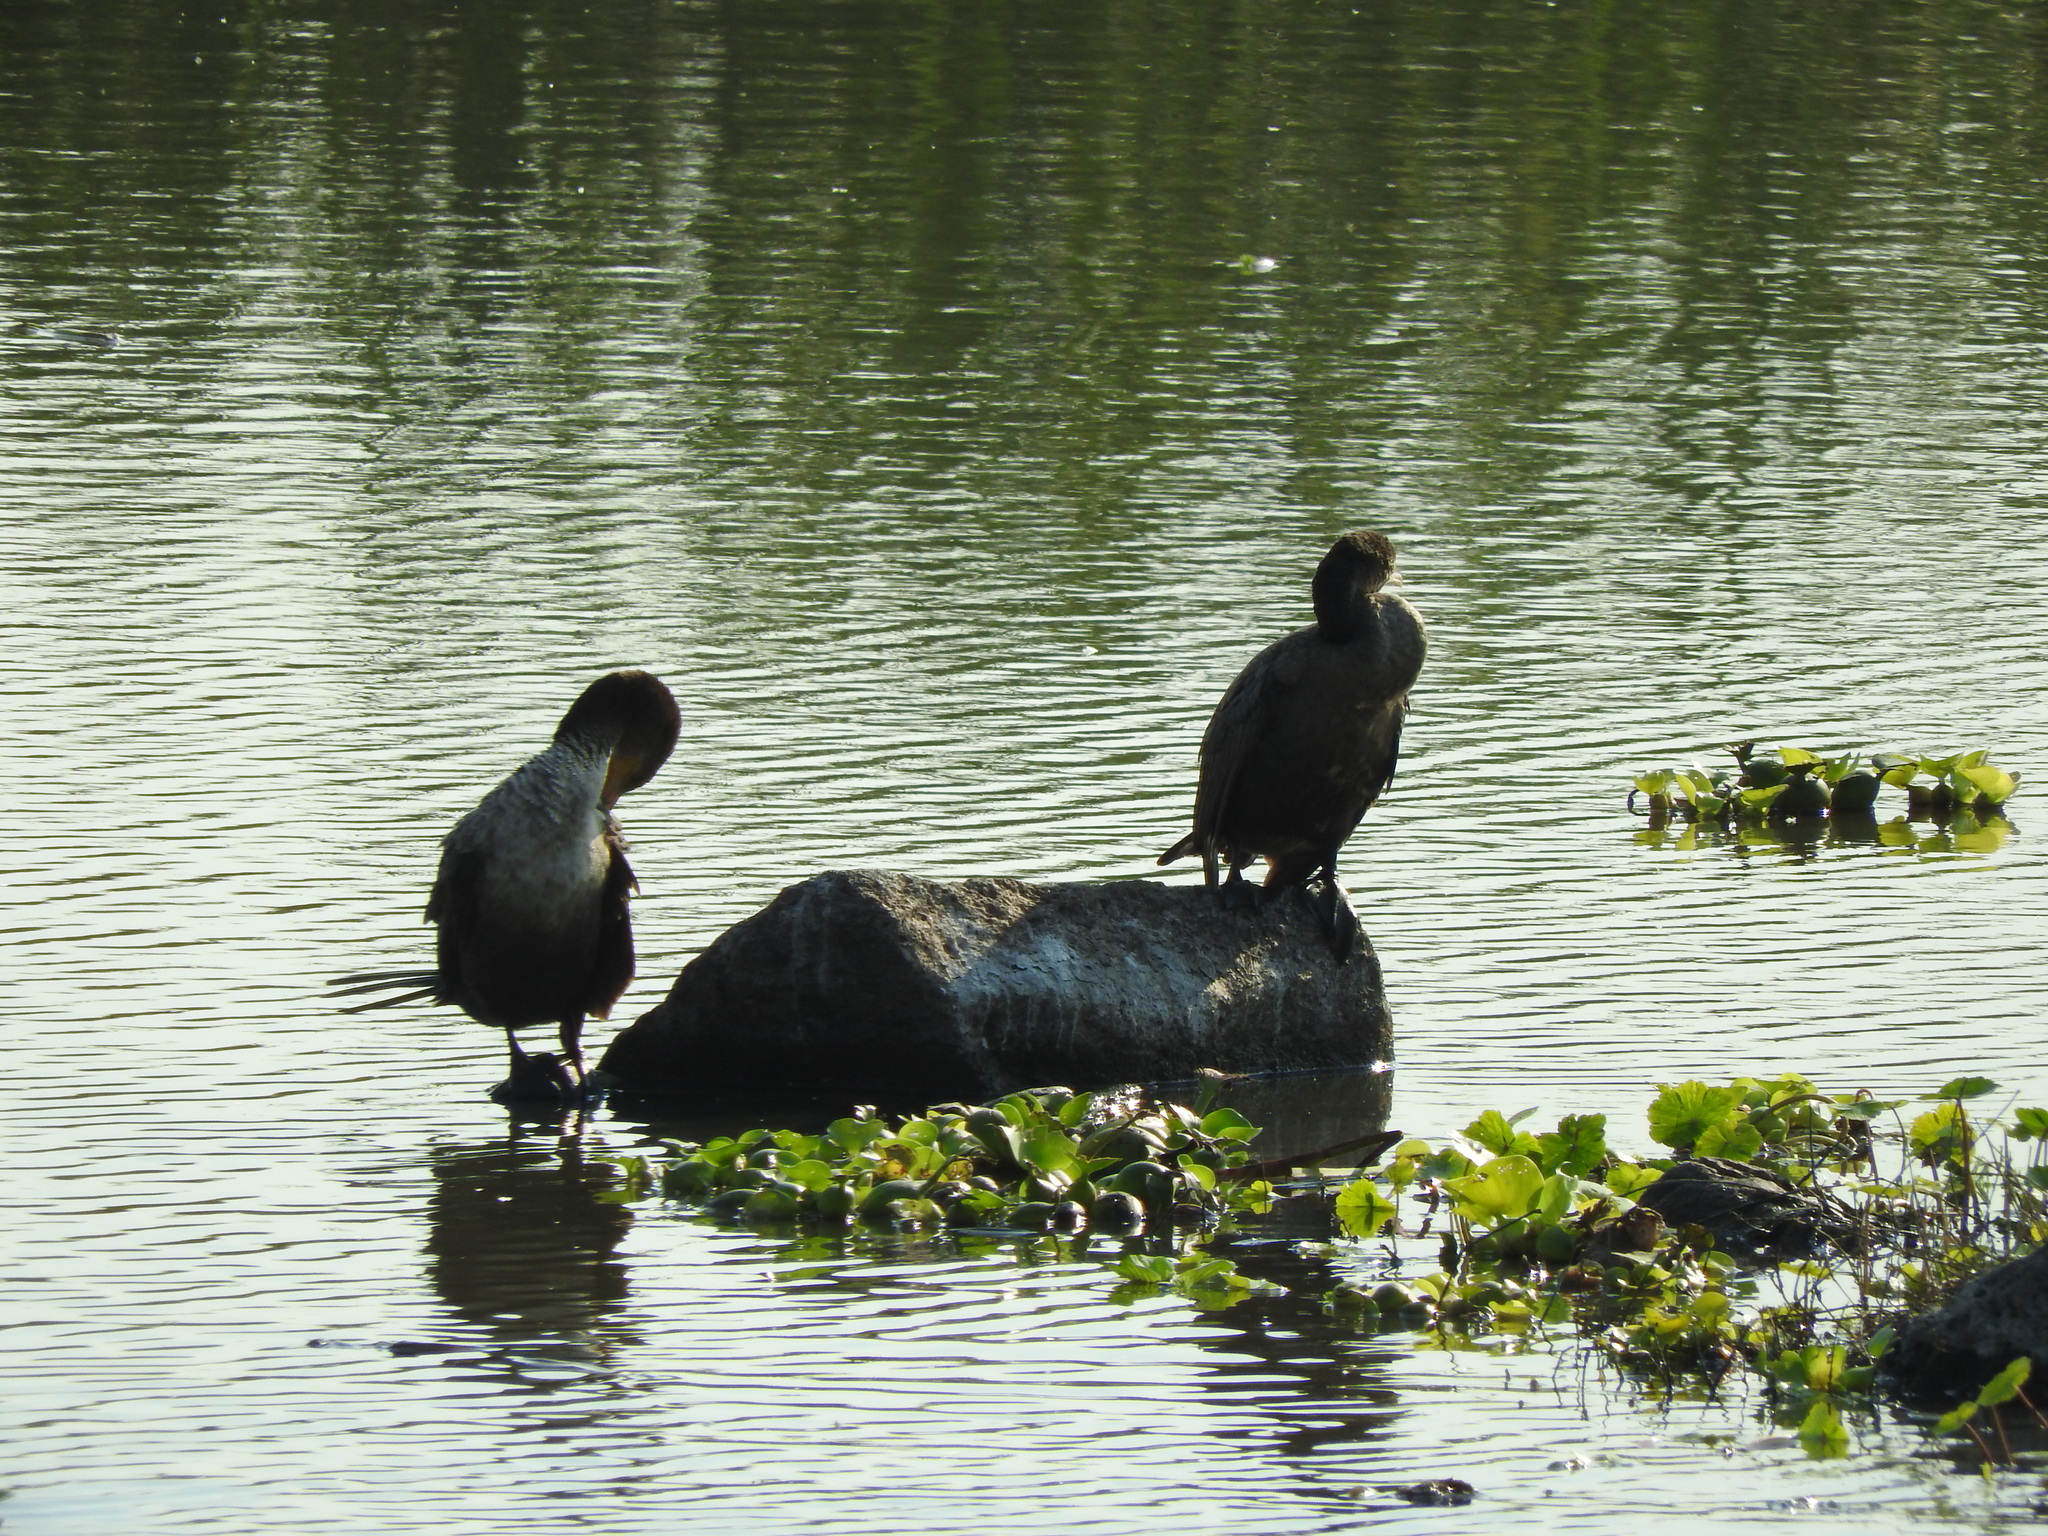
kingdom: Animalia
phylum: Chordata
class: Aves
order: Suliformes
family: Phalacrocoracidae
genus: Phalacrocorax
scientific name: Phalacrocorax brasilianus
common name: Neotropic cormorant
